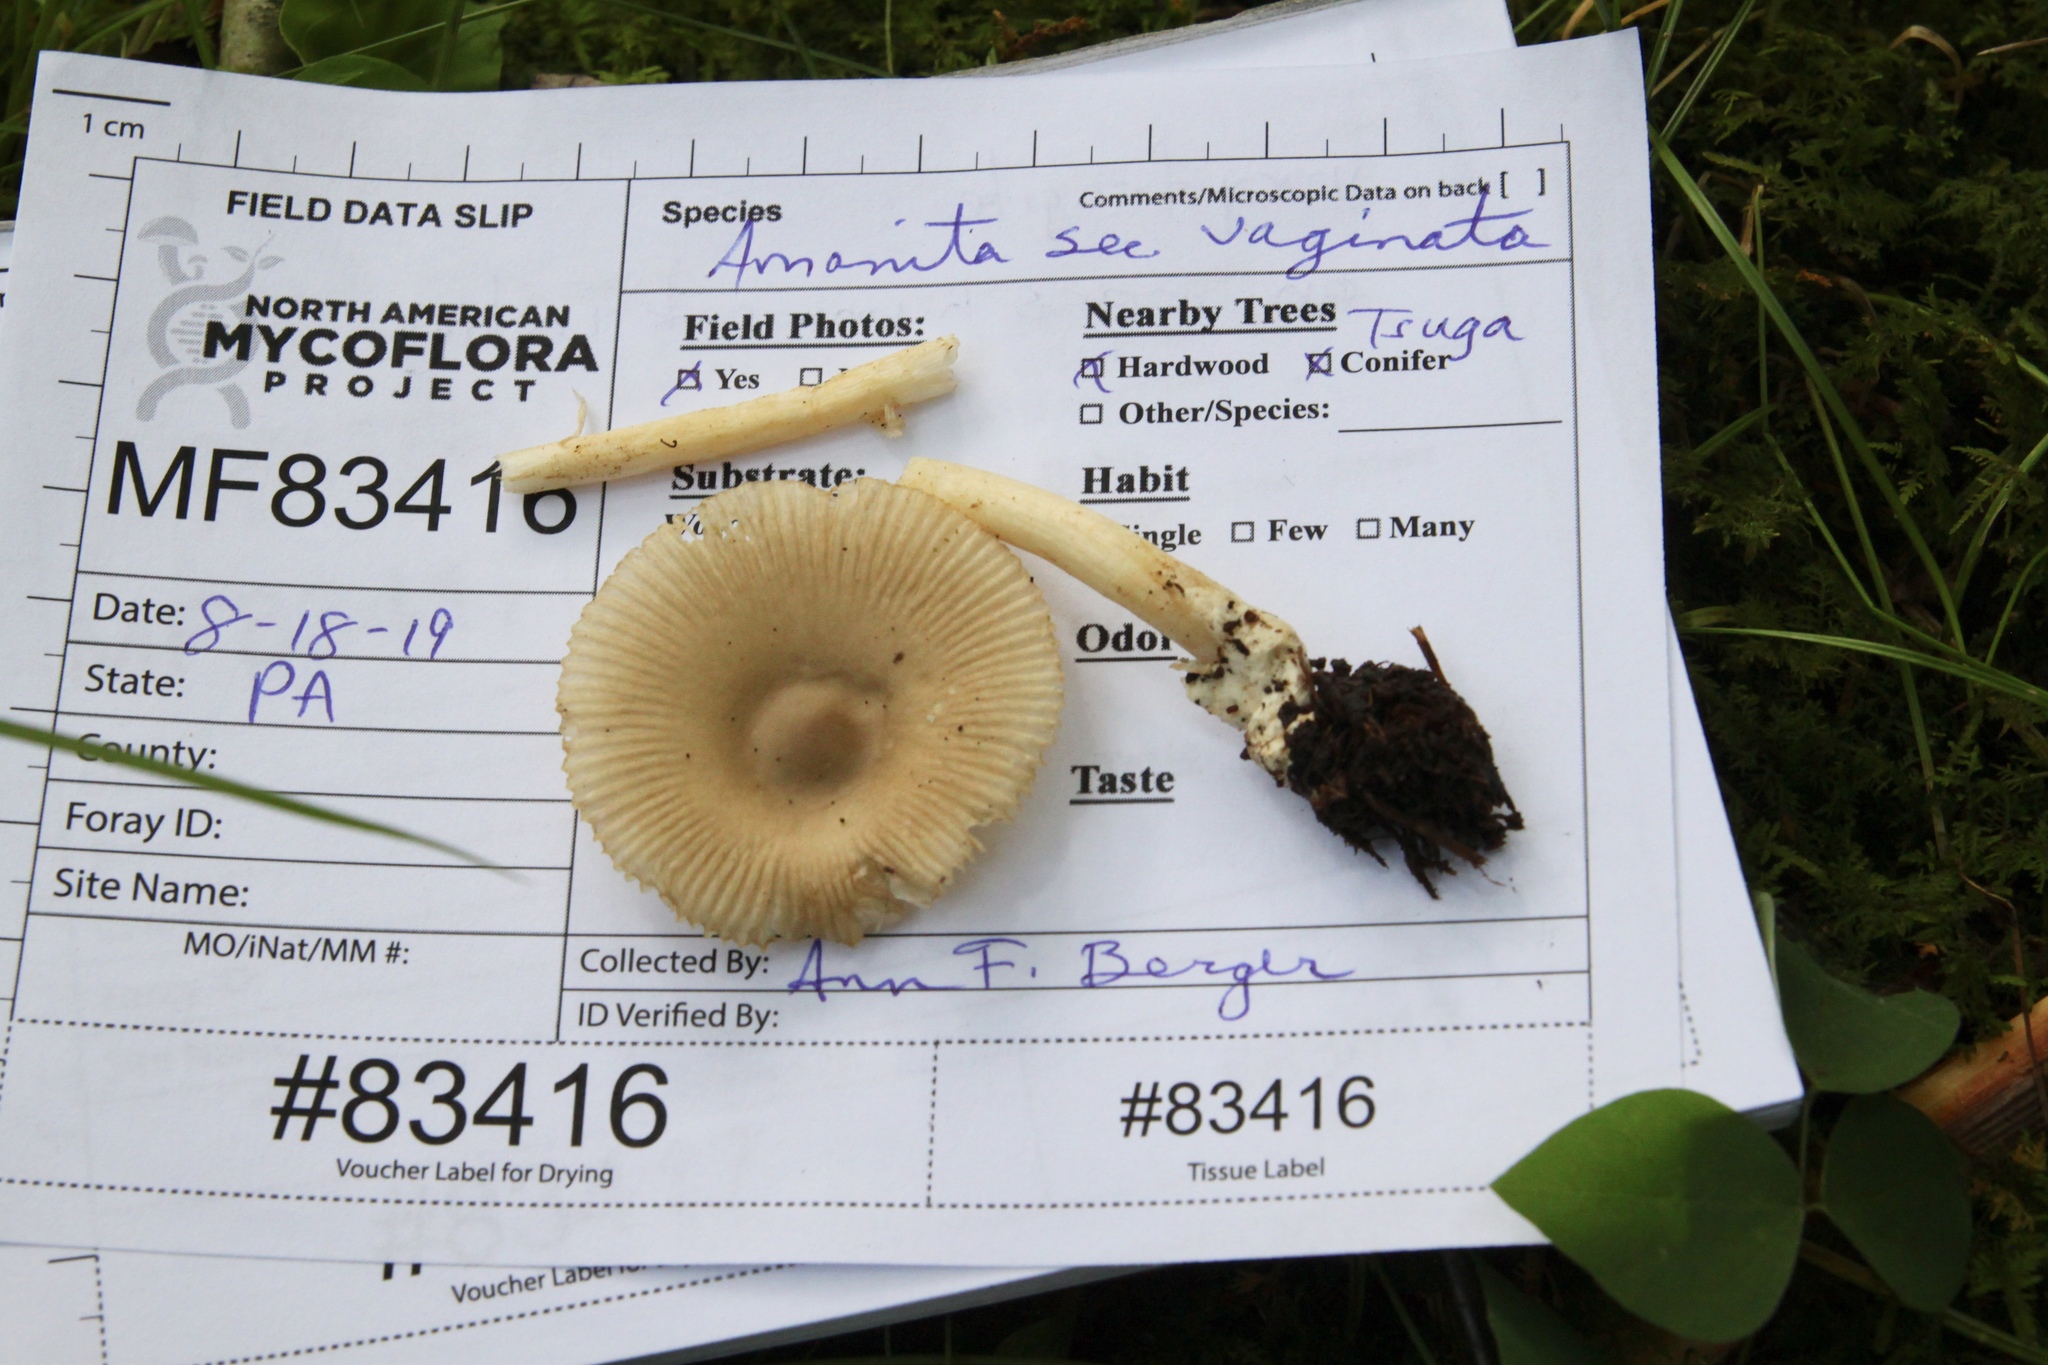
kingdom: Fungi
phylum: Basidiomycota
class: Agaricomycetes
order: Agaricales
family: Amanitaceae
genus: Amanita
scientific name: Amanita vaginata
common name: Grisette
